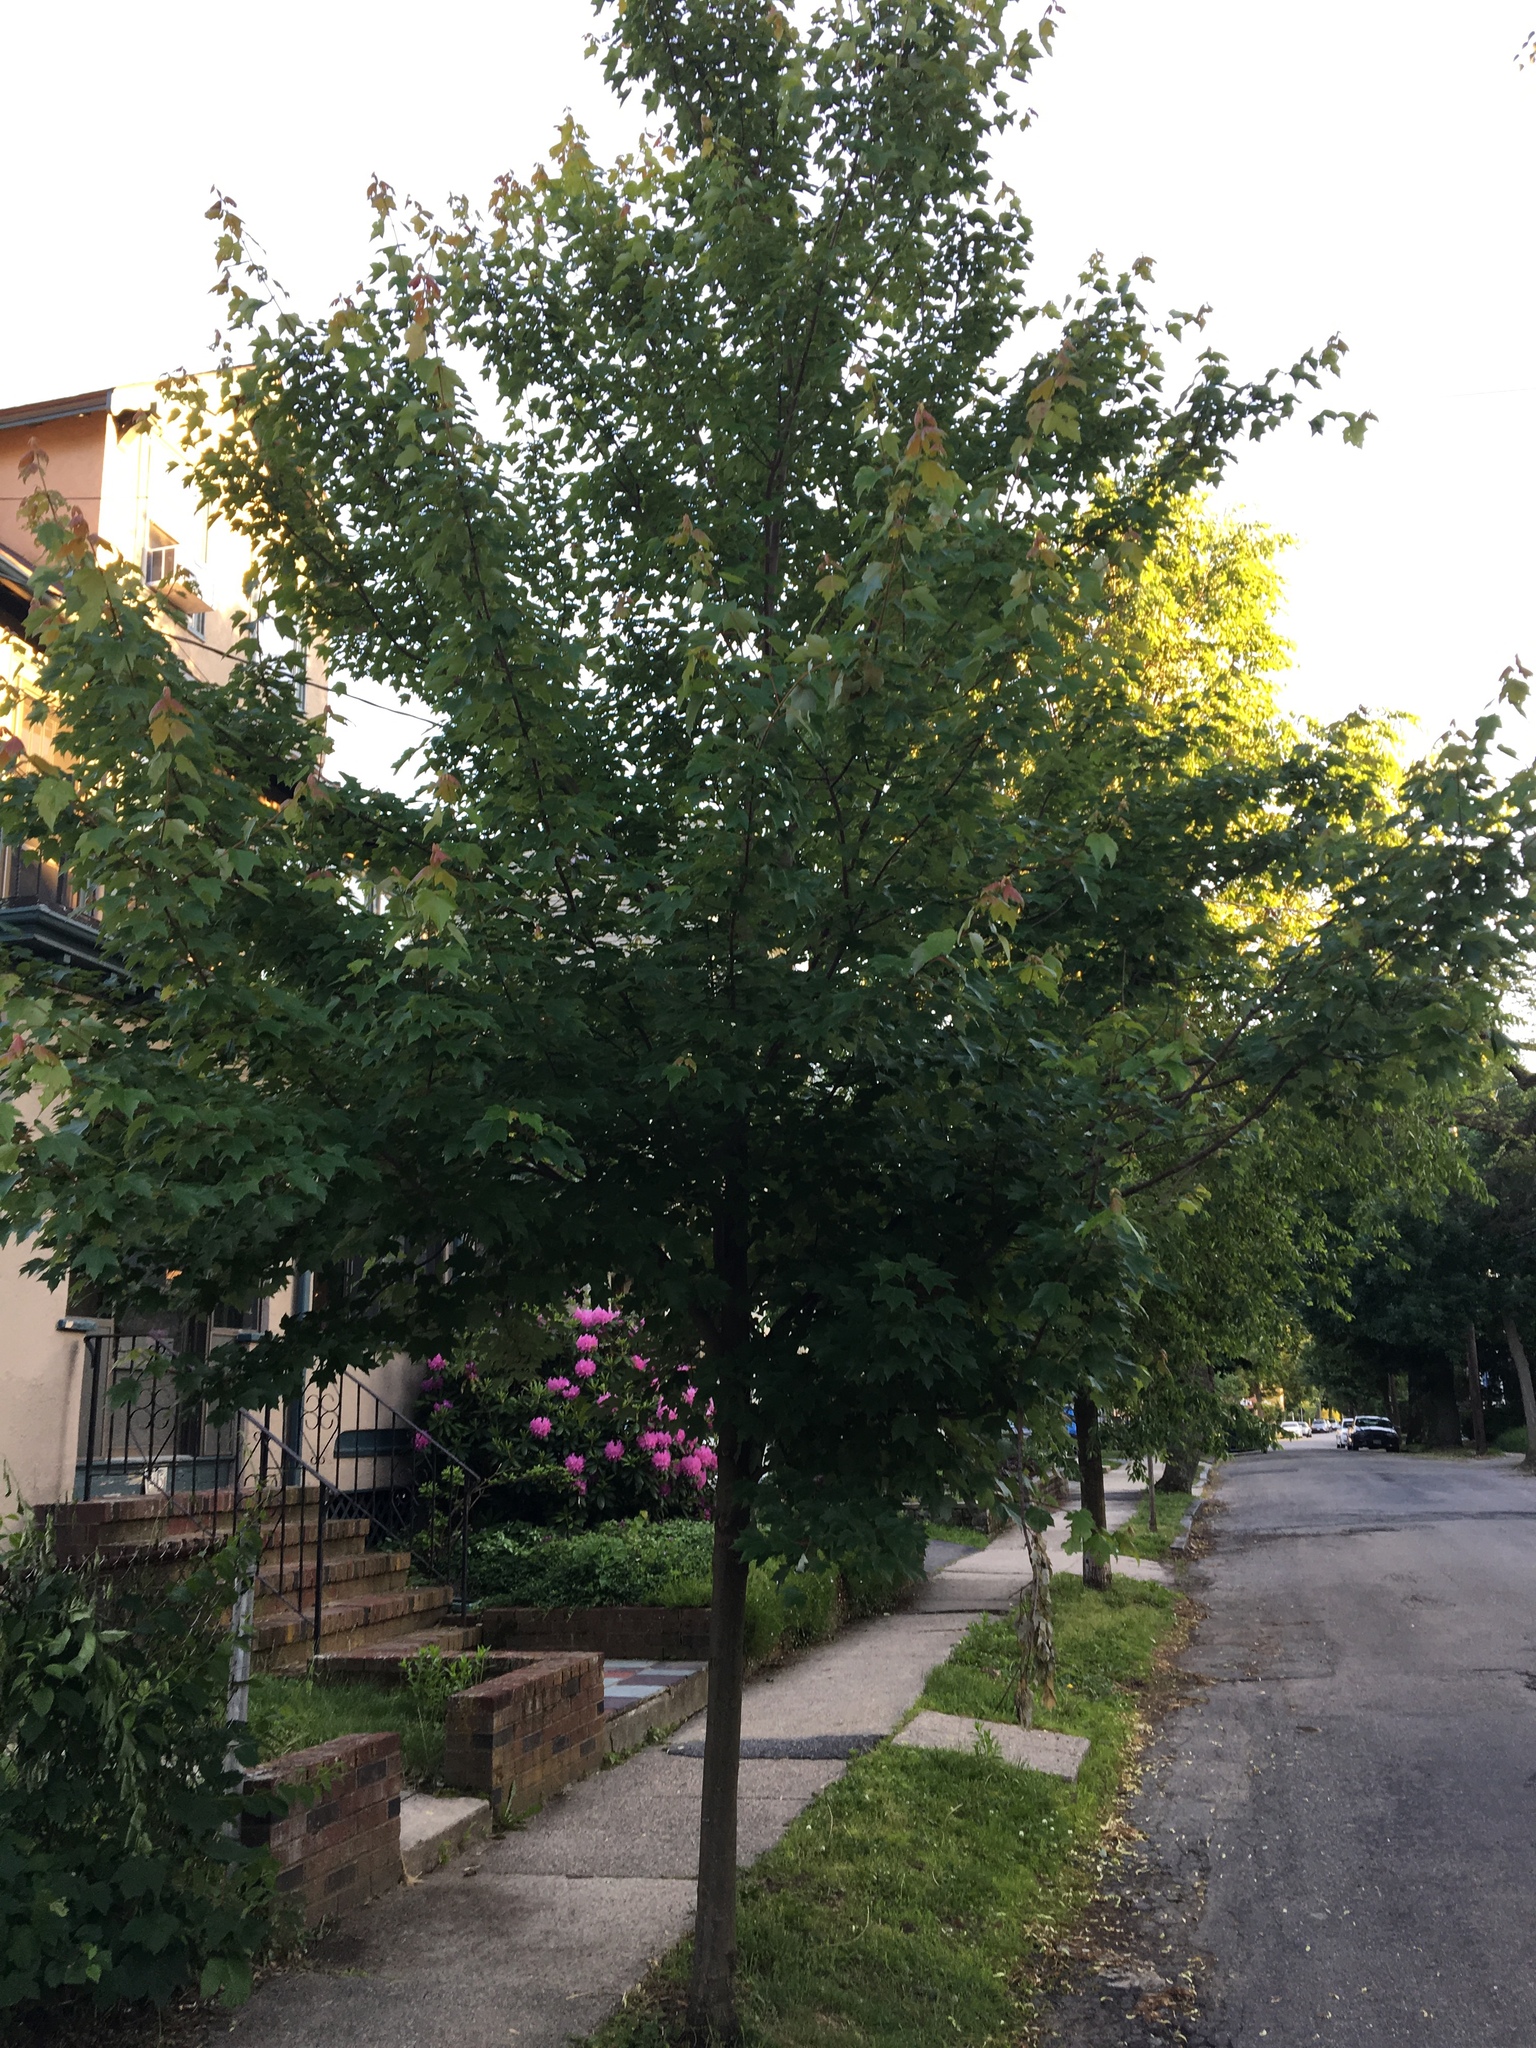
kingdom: Plantae
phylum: Tracheophyta
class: Magnoliopsida
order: Sapindales
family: Sapindaceae
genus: Acer
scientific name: Acer rubrum
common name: Red maple
